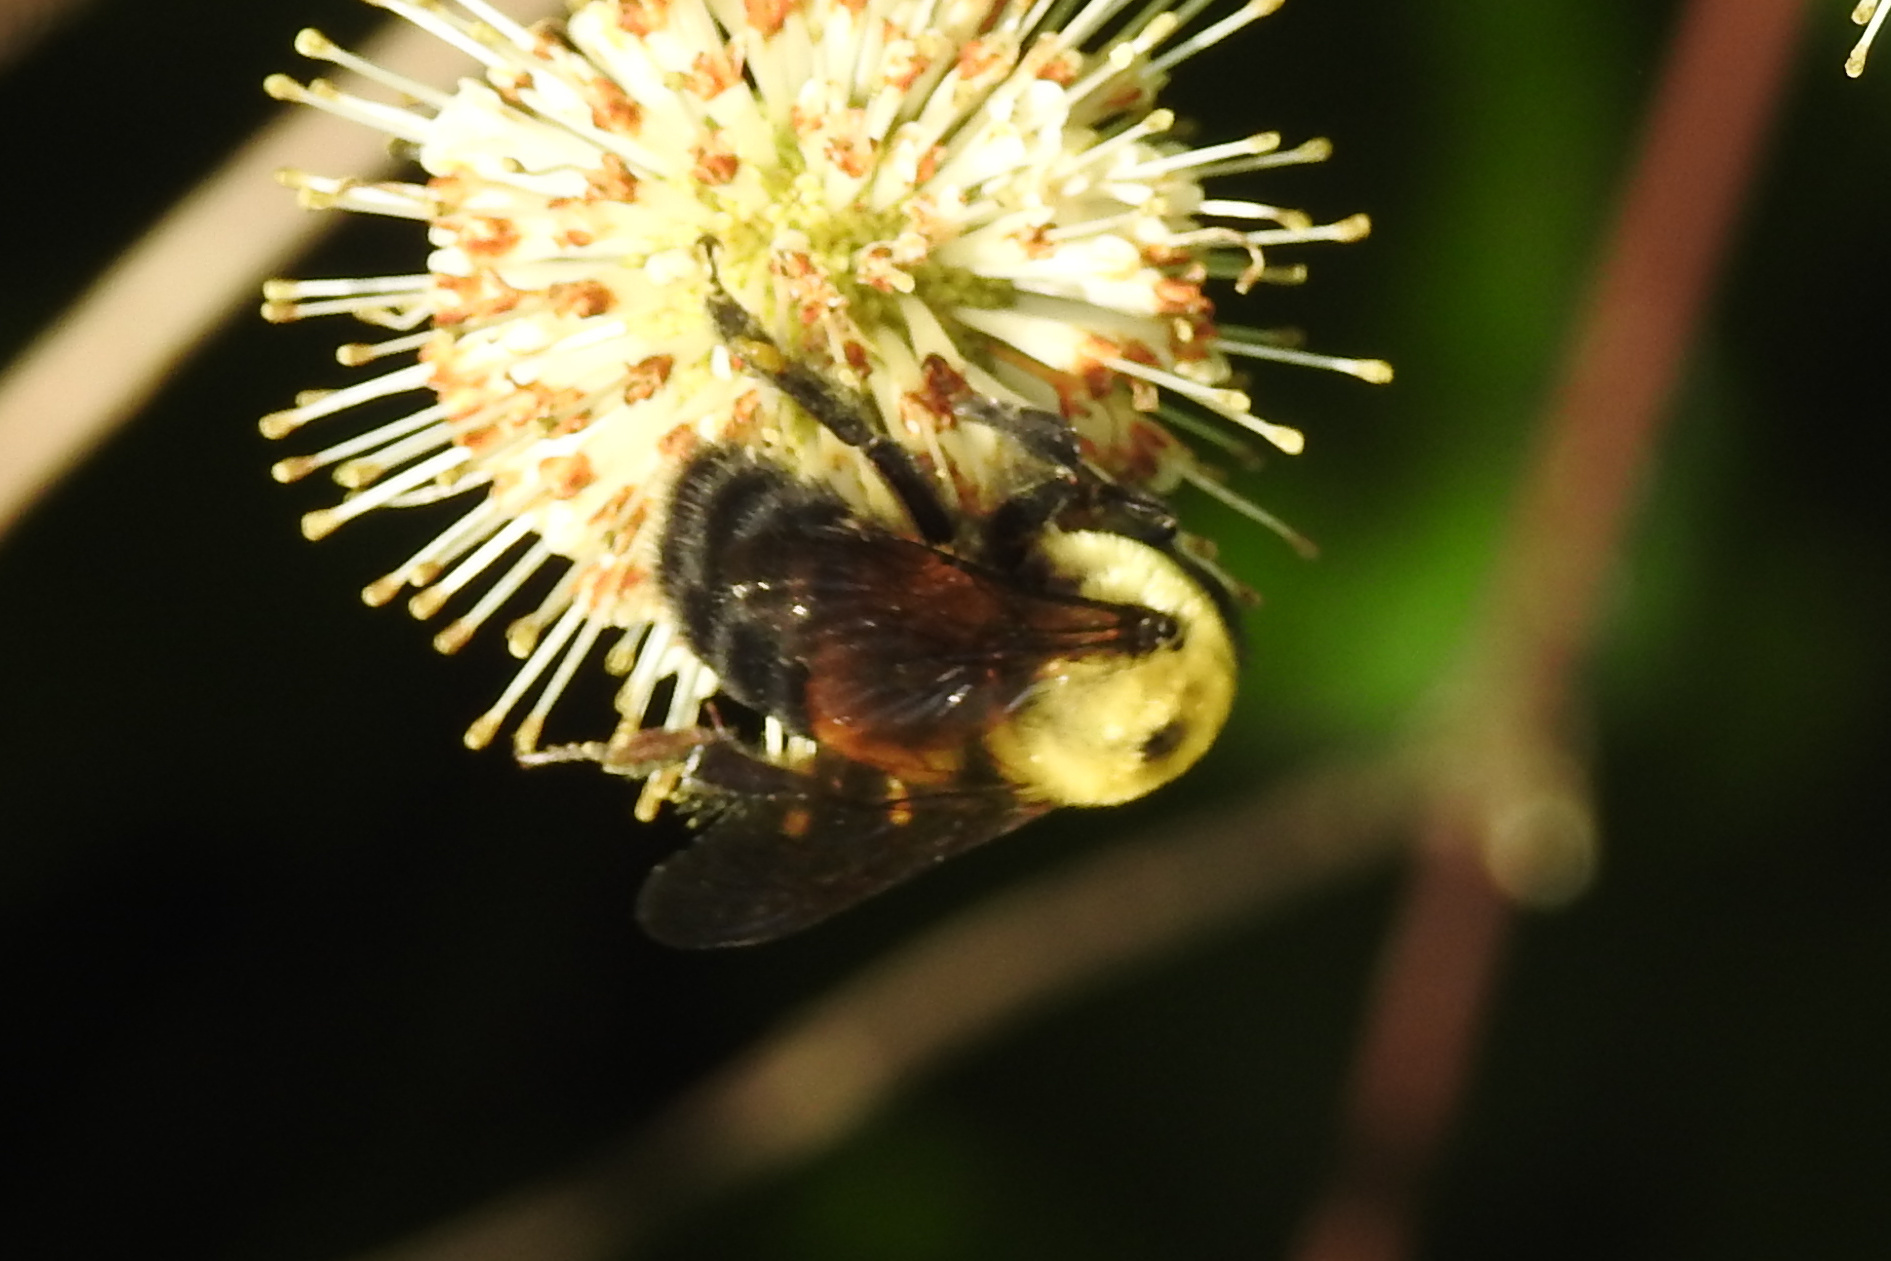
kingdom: Animalia
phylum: Arthropoda
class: Insecta
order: Hymenoptera
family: Apidae
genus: Bombus
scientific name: Bombus griseocollis
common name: Brown-belted bumble bee
